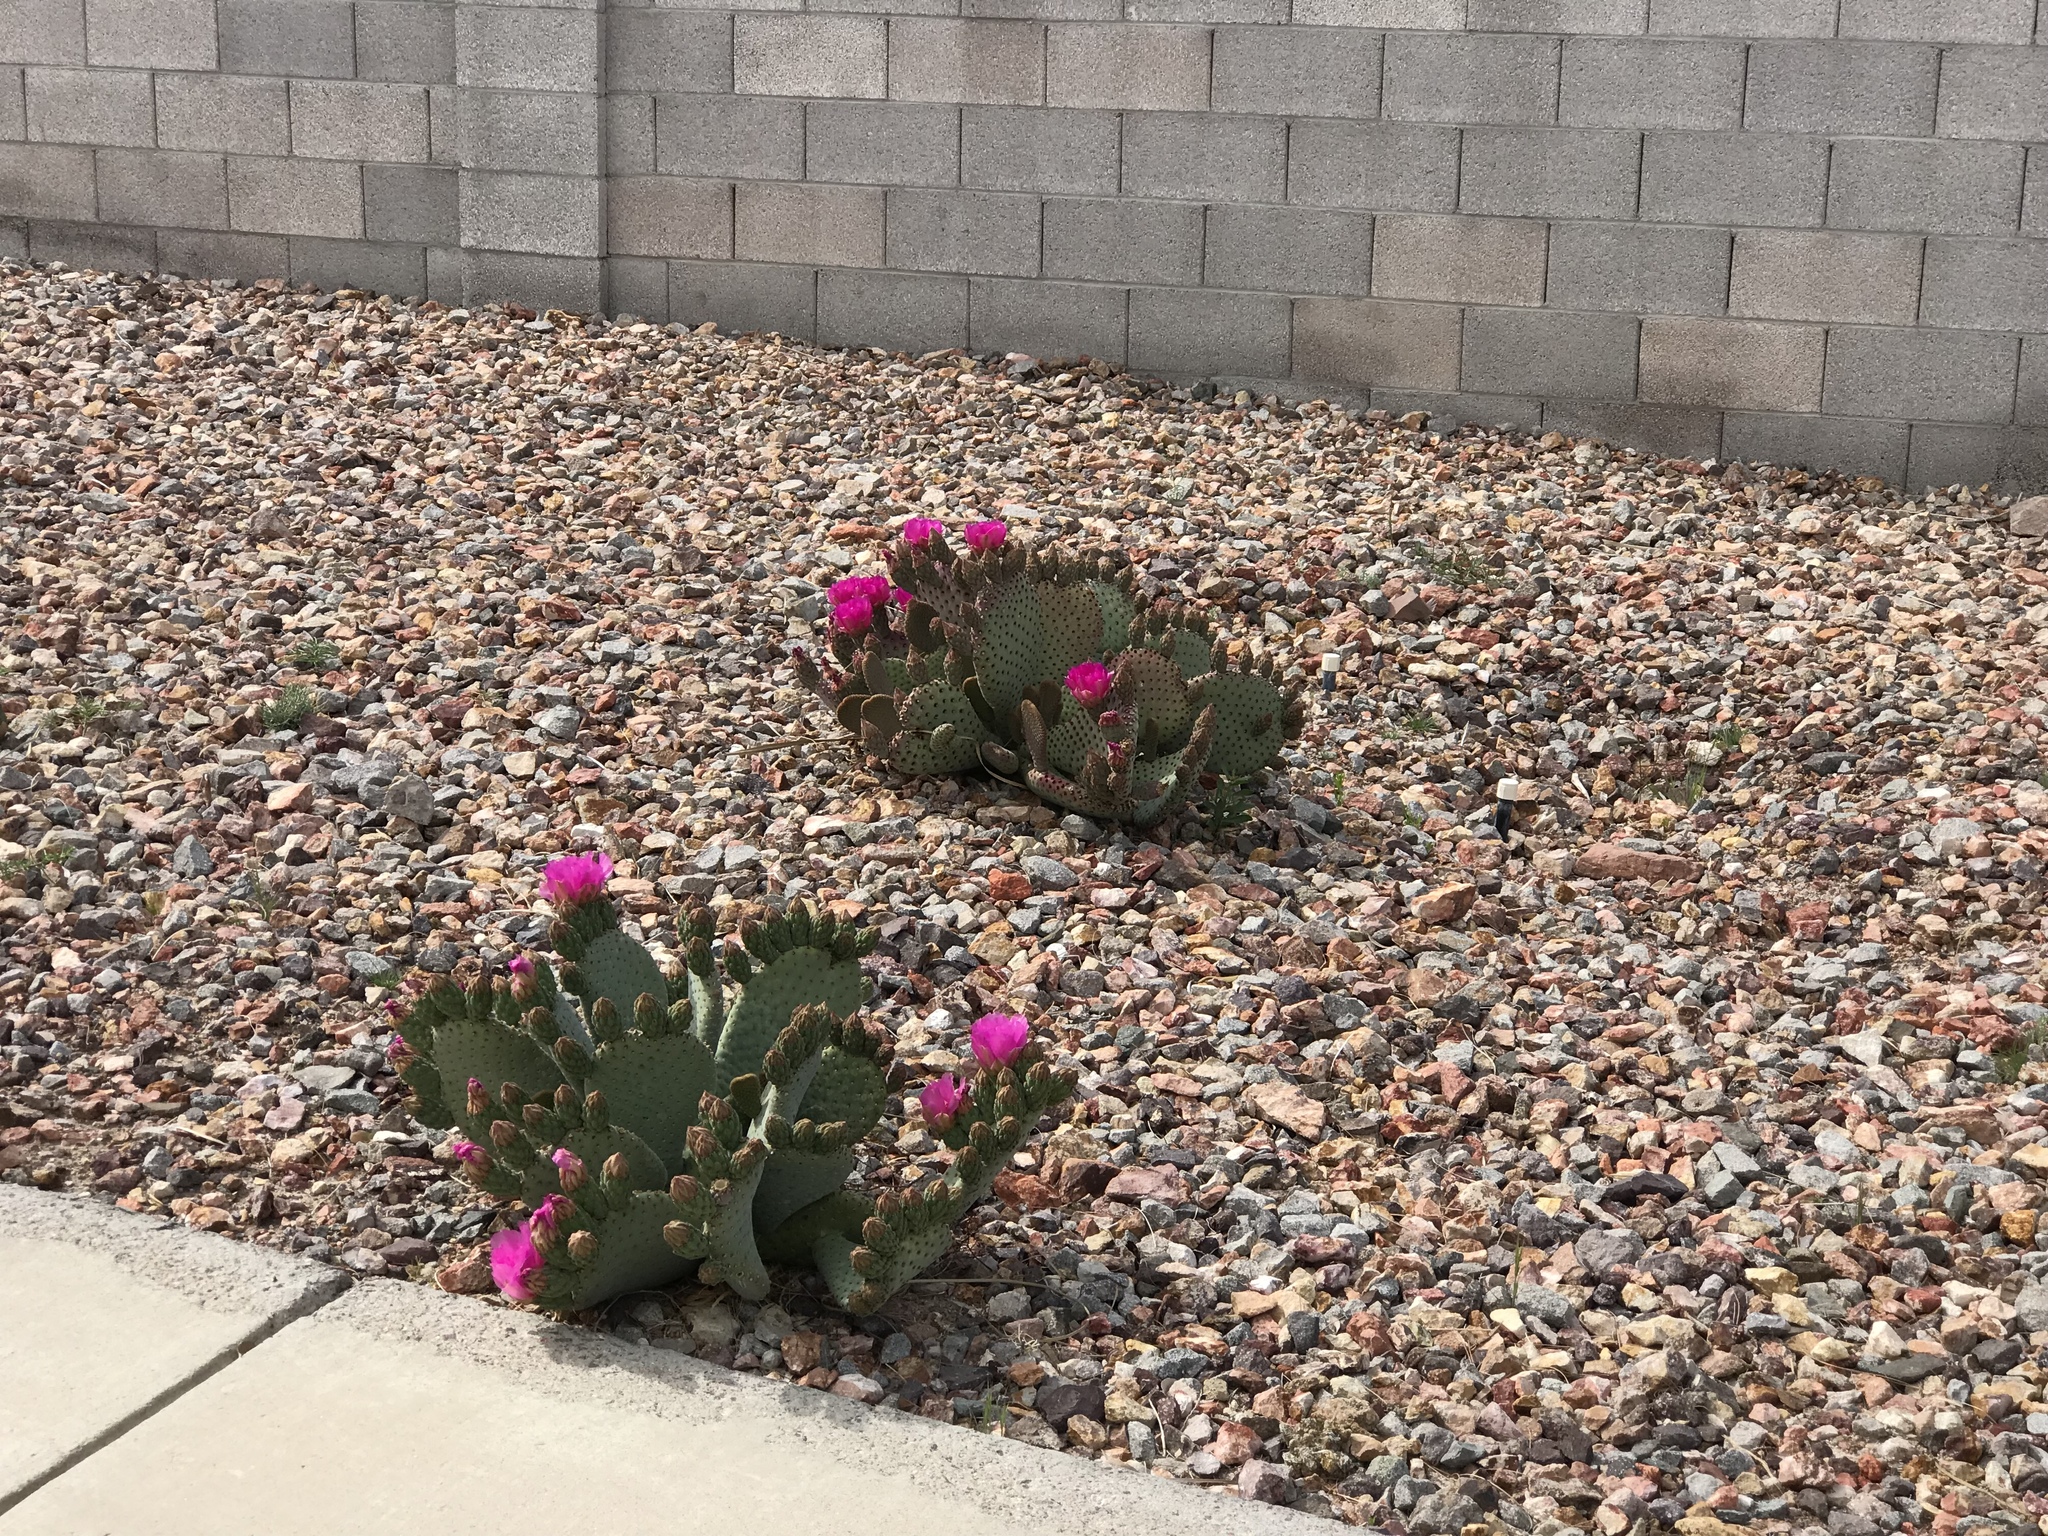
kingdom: Plantae
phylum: Tracheophyta
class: Magnoliopsida
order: Caryophyllales
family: Cactaceae
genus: Opuntia
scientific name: Opuntia basilaris
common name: Beavertail prickly-pear
